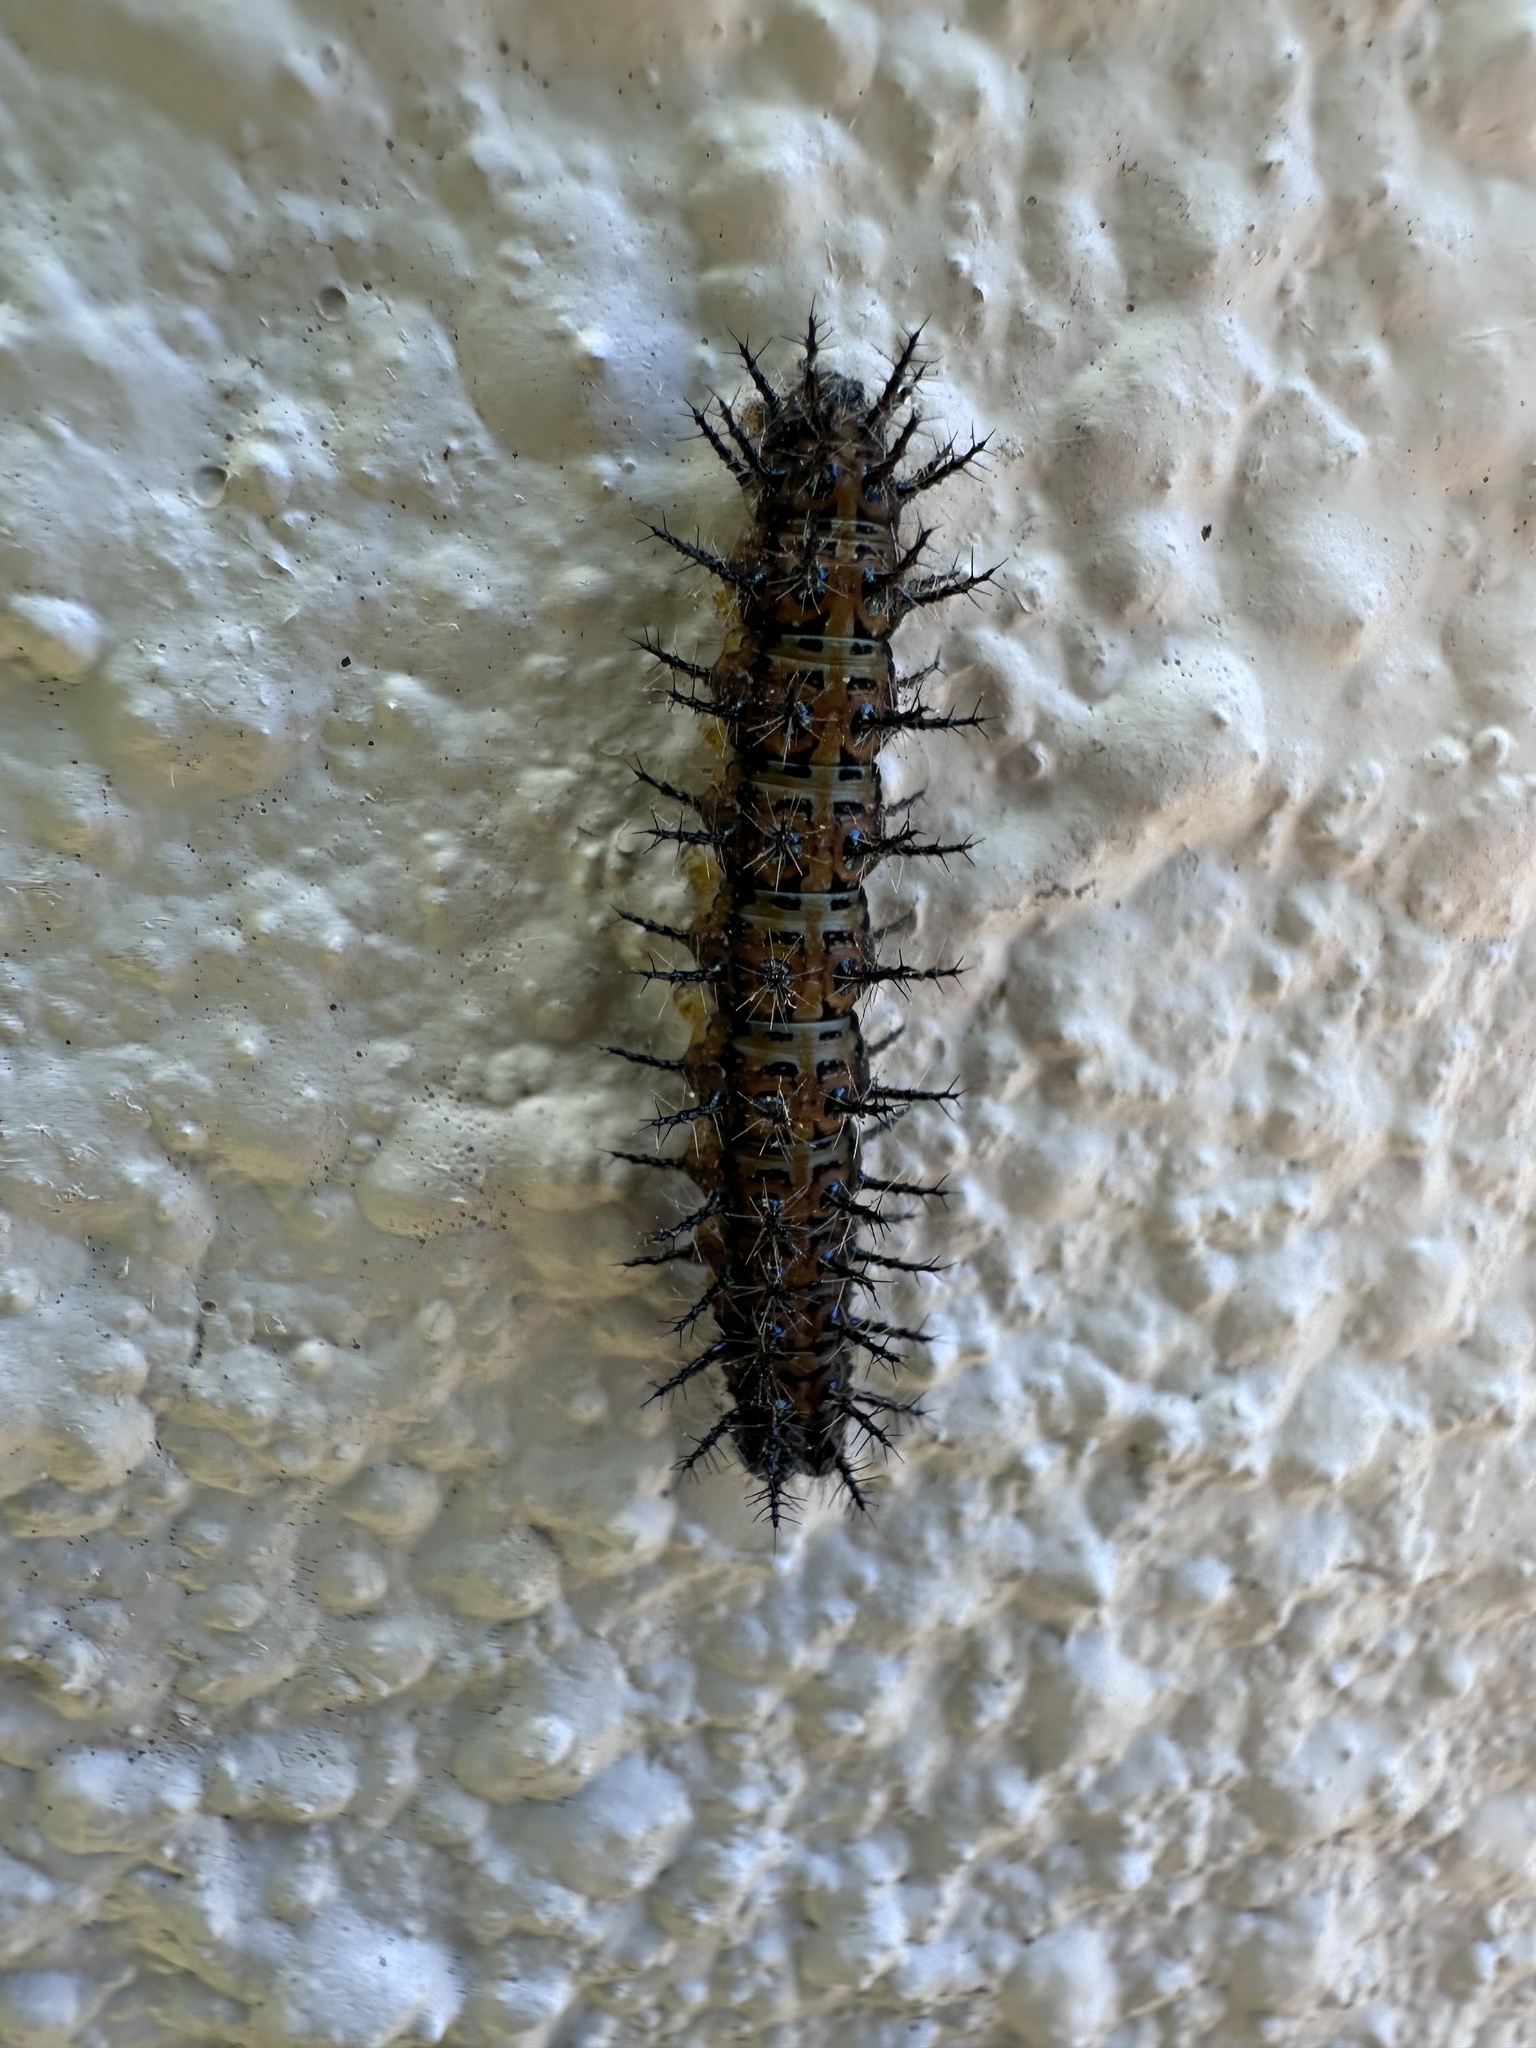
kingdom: Animalia
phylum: Arthropoda
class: Insecta
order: Lepidoptera
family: Nymphalidae
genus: Acraea
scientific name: Acraea horta
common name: Garden acraea
